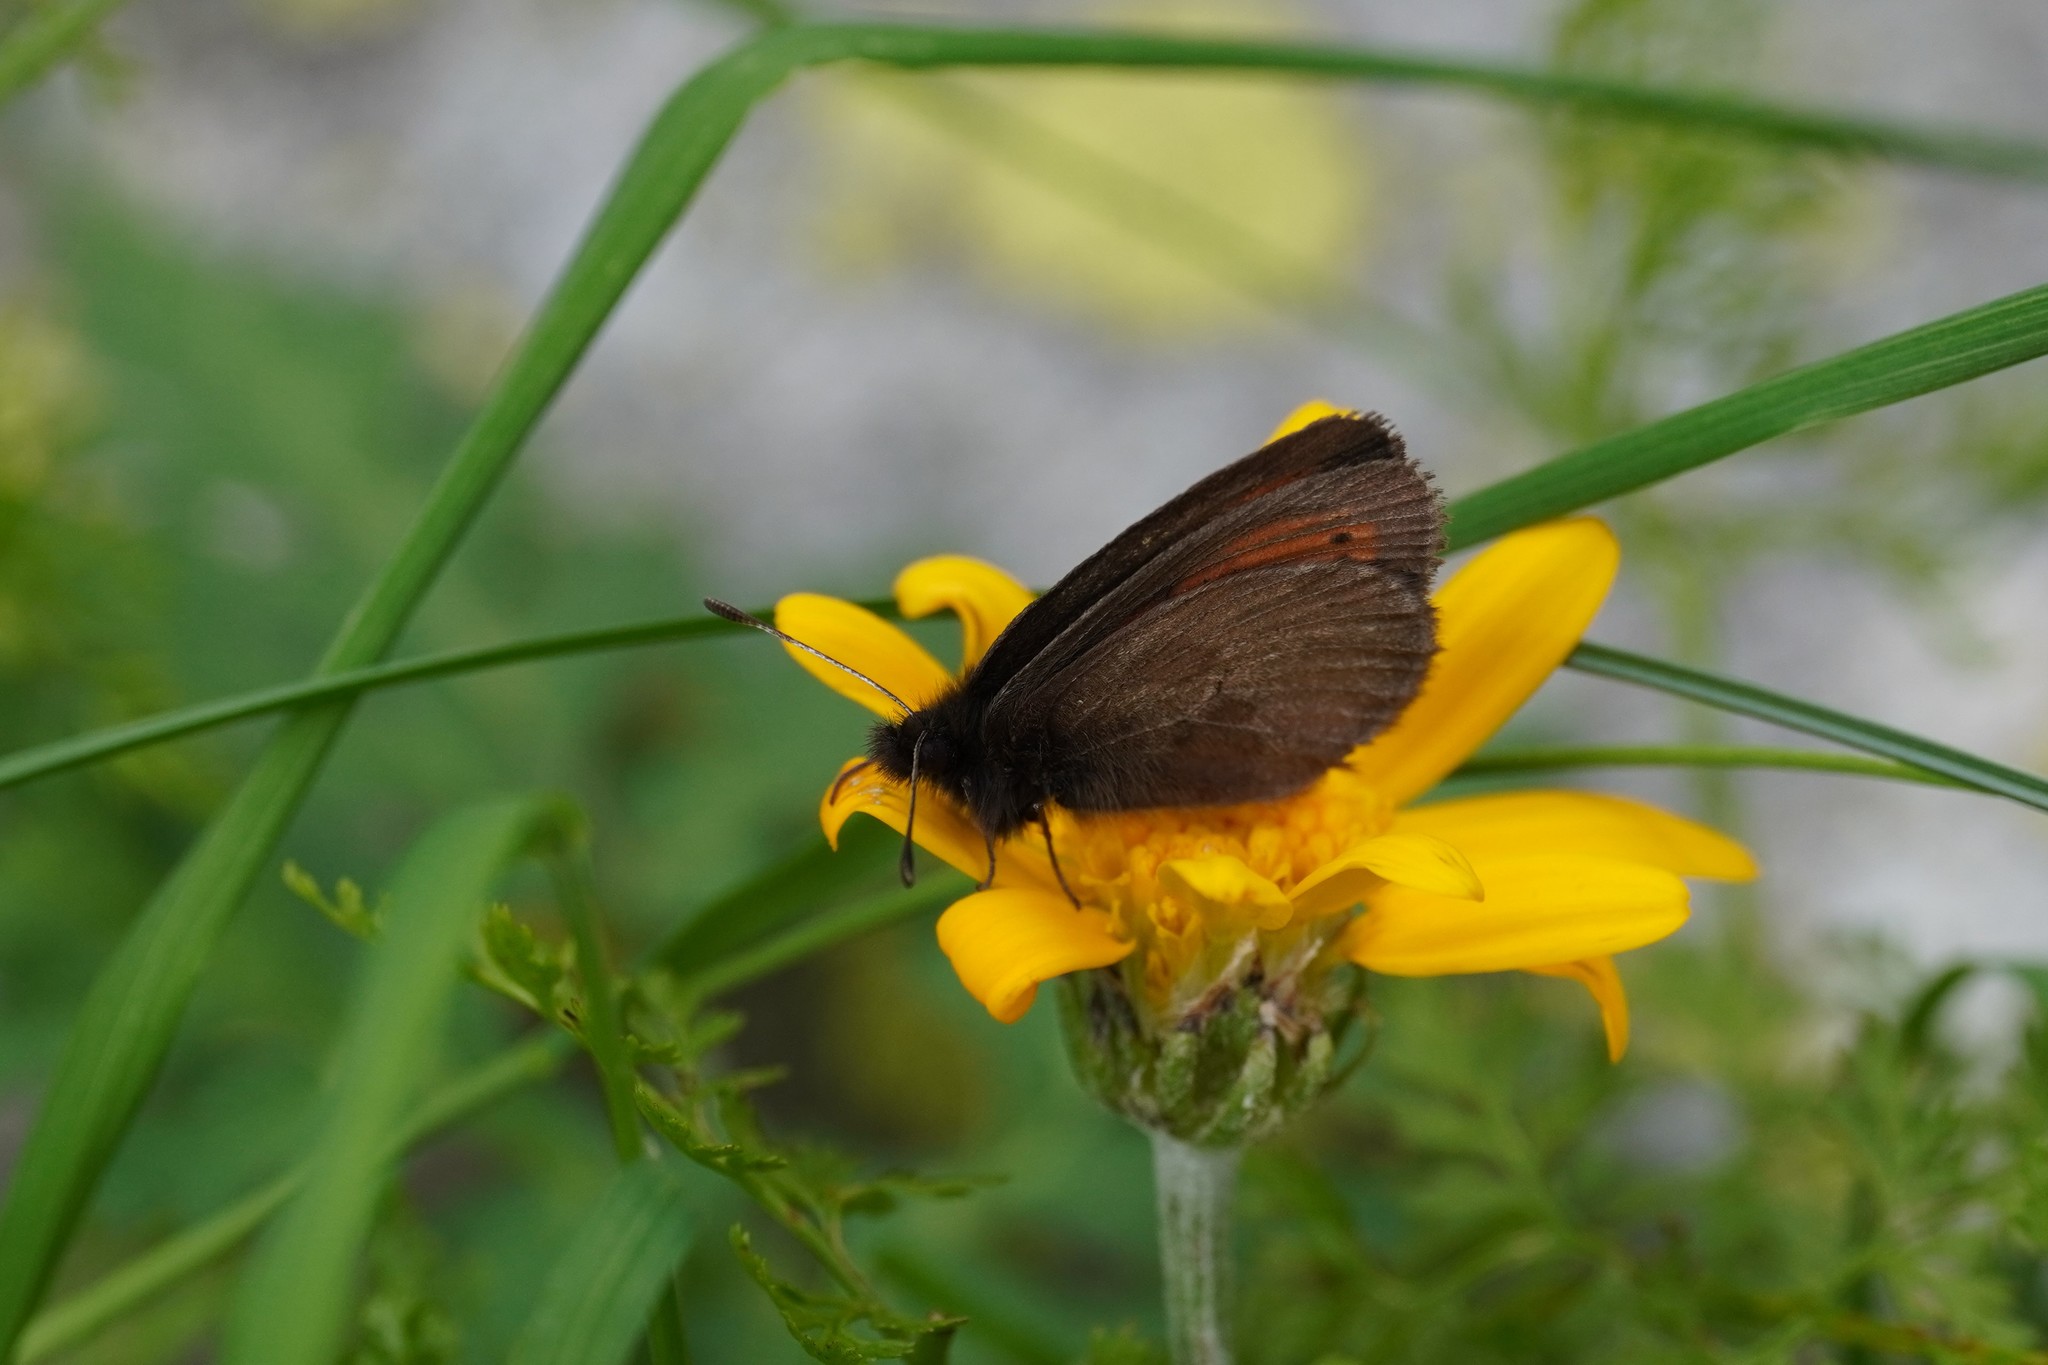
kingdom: Animalia
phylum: Arthropoda
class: Insecta
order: Lepidoptera
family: Nymphalidae
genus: Erebia
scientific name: Erebia christi
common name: Raetzer's ringlet
